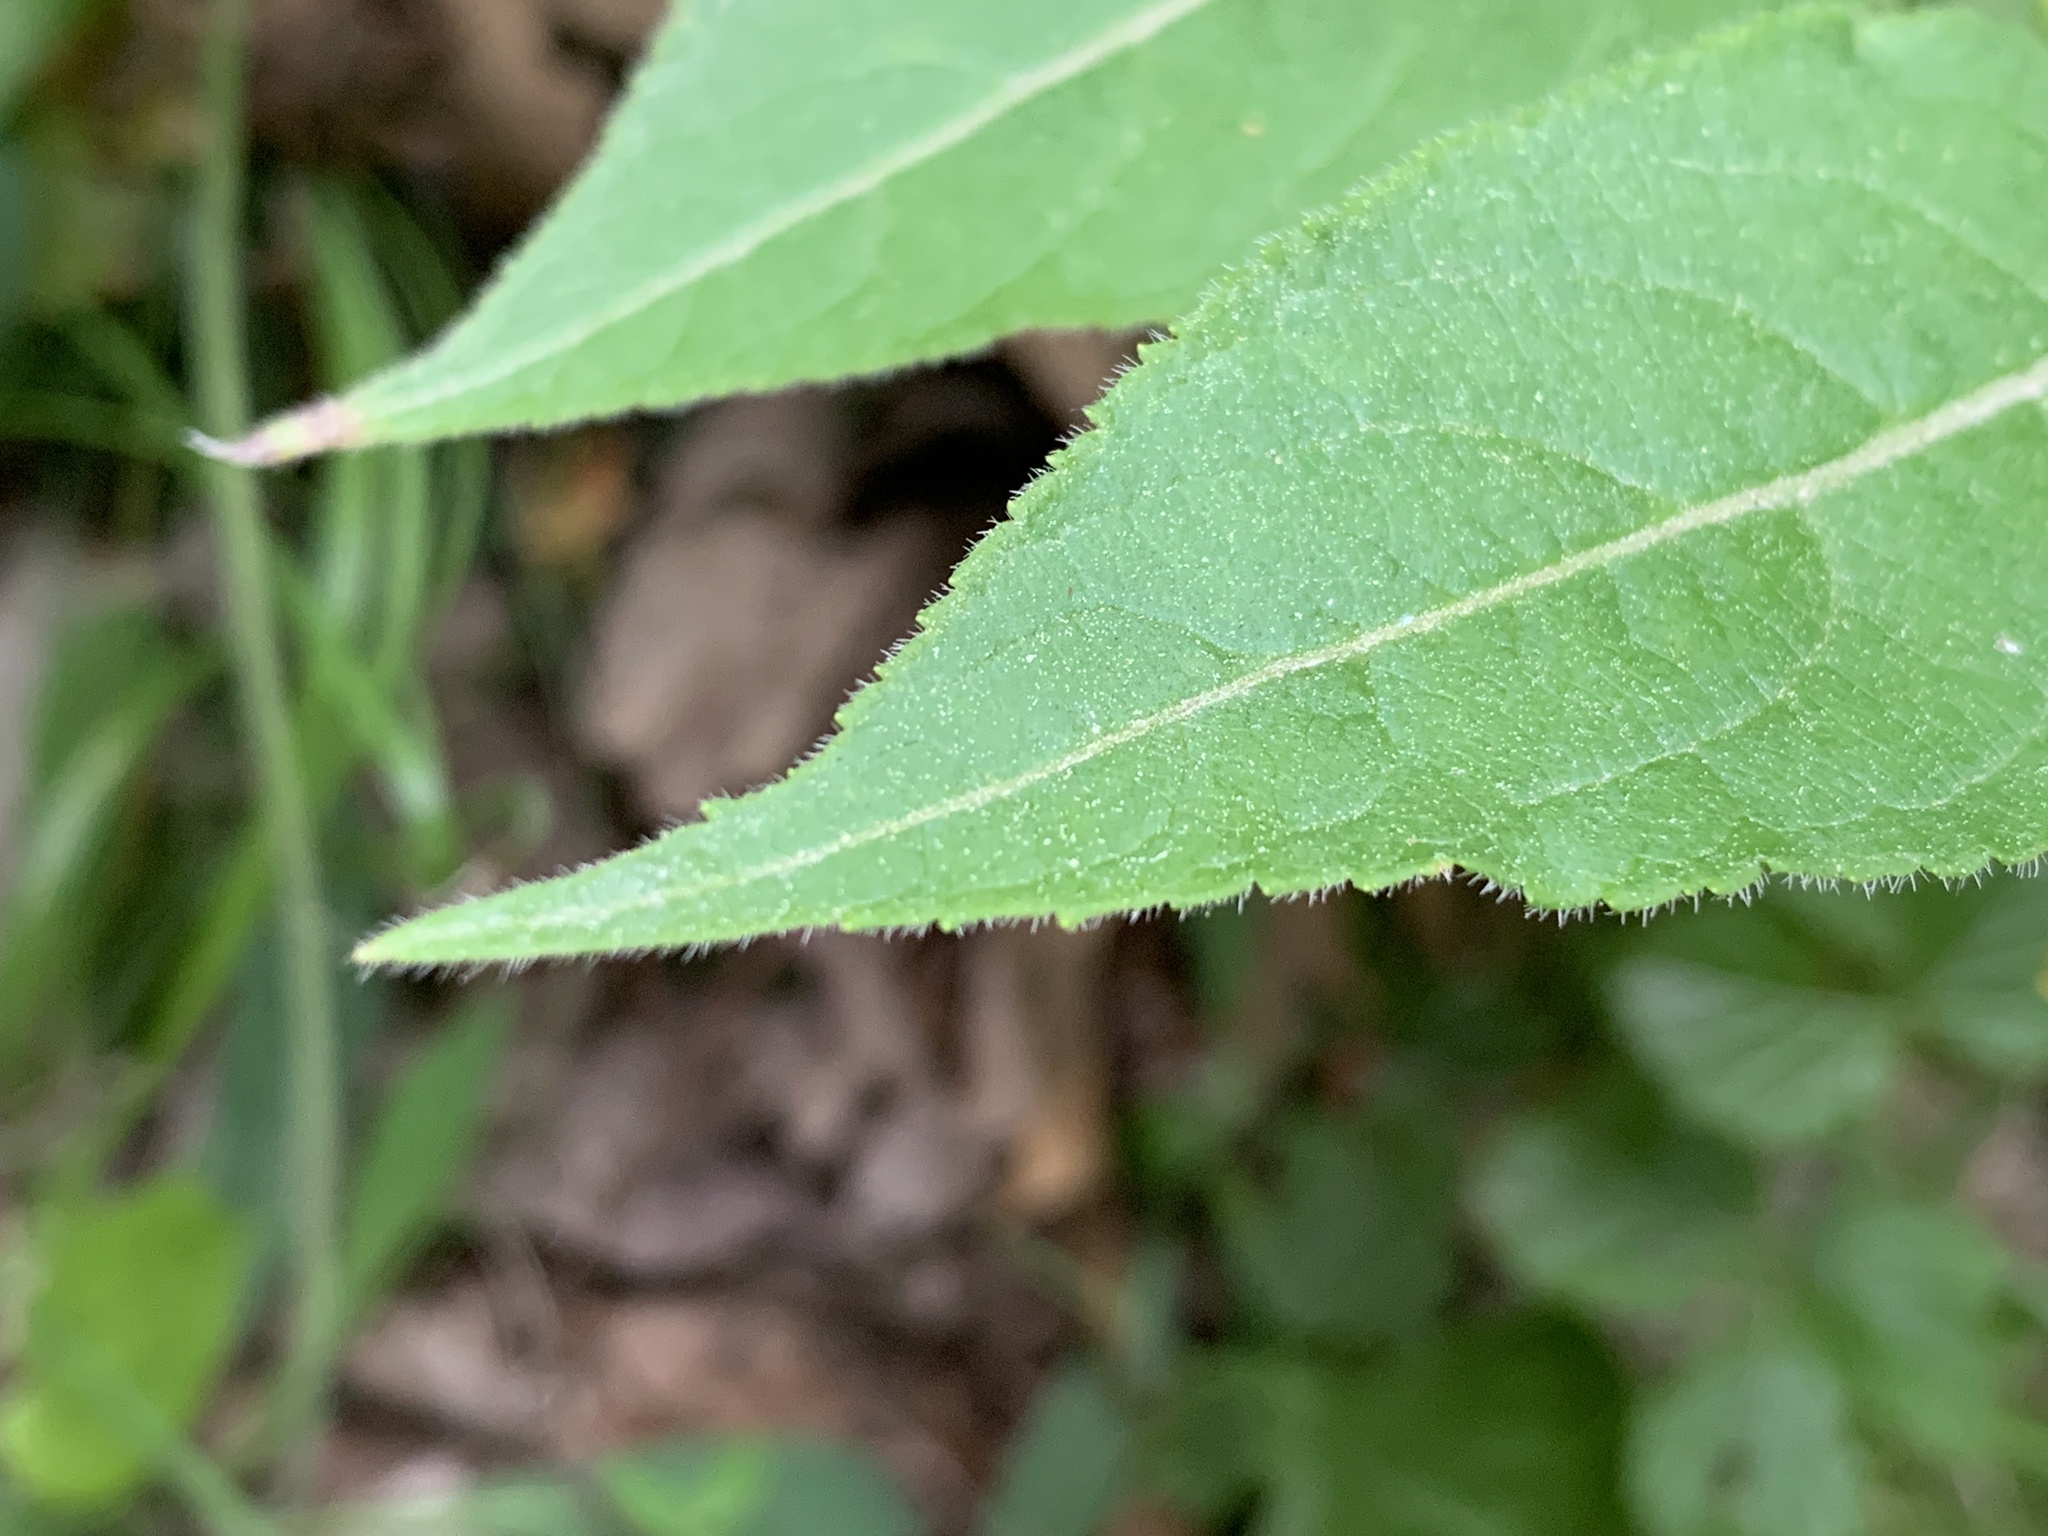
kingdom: Plantae
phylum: Tracheophyta
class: Magnoliopsida
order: Dipsacales
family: Caprifoliaceae
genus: Diervilla
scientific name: Diervilla lonicera
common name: Bush-honeysuckle
